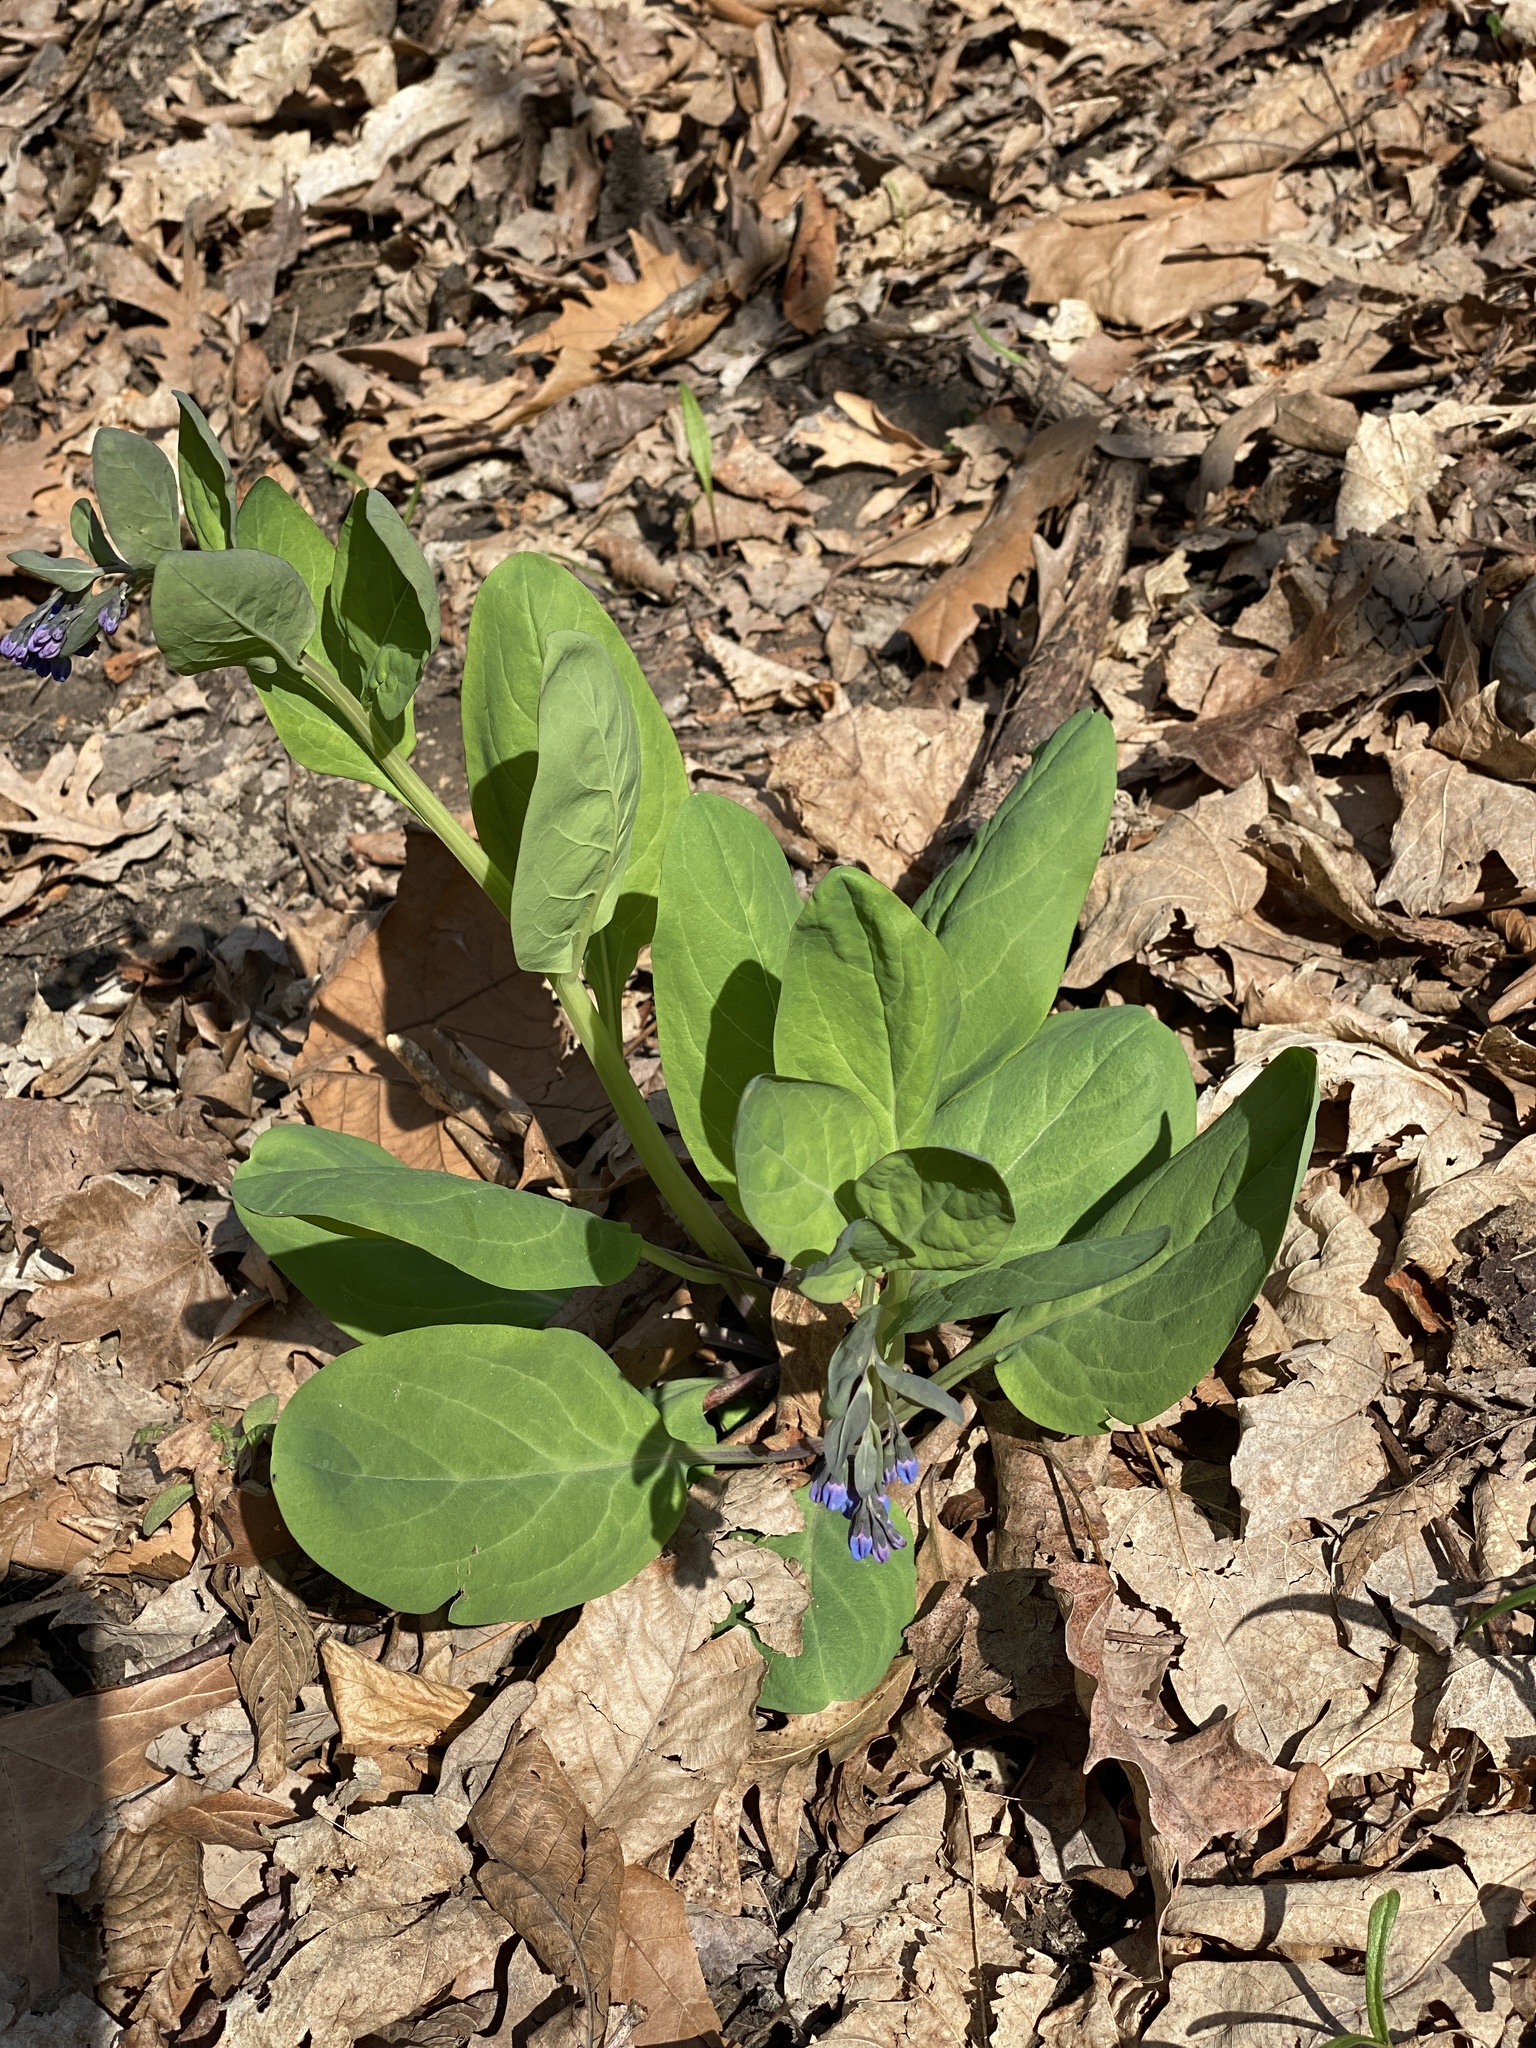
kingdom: Plantae
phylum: Tracheophyta
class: Magnoliopsida
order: Boraginales
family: Boraginaceae
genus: Mertensia
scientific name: Mertensia virginica
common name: Virginia bluebells
